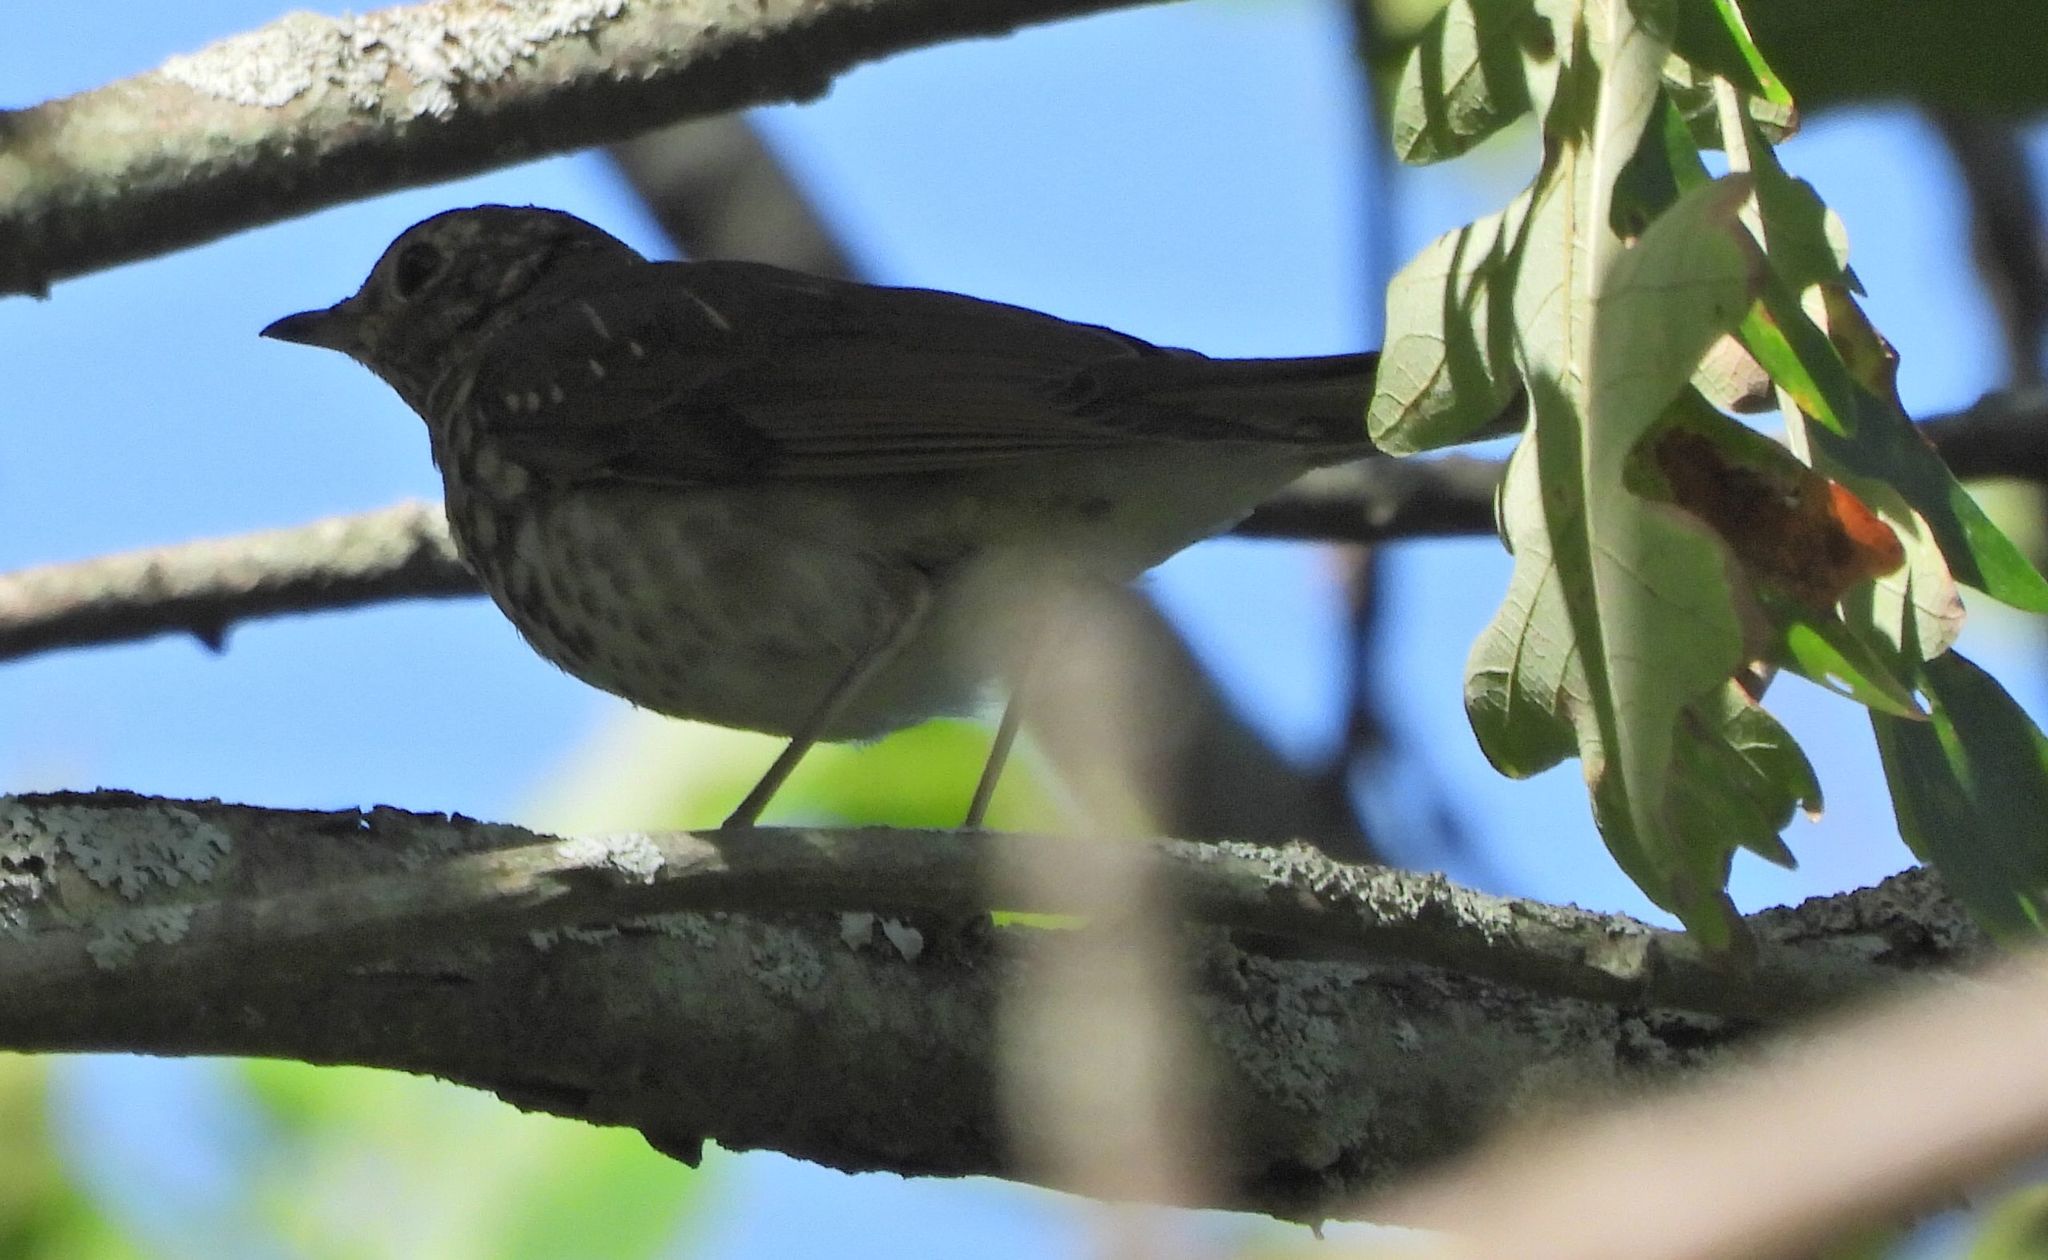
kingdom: Animalia
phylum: Chordata
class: Aves
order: Passeriformes
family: Turdidae
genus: Catharus
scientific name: Catharus ustulatus
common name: Swainson's thrush
